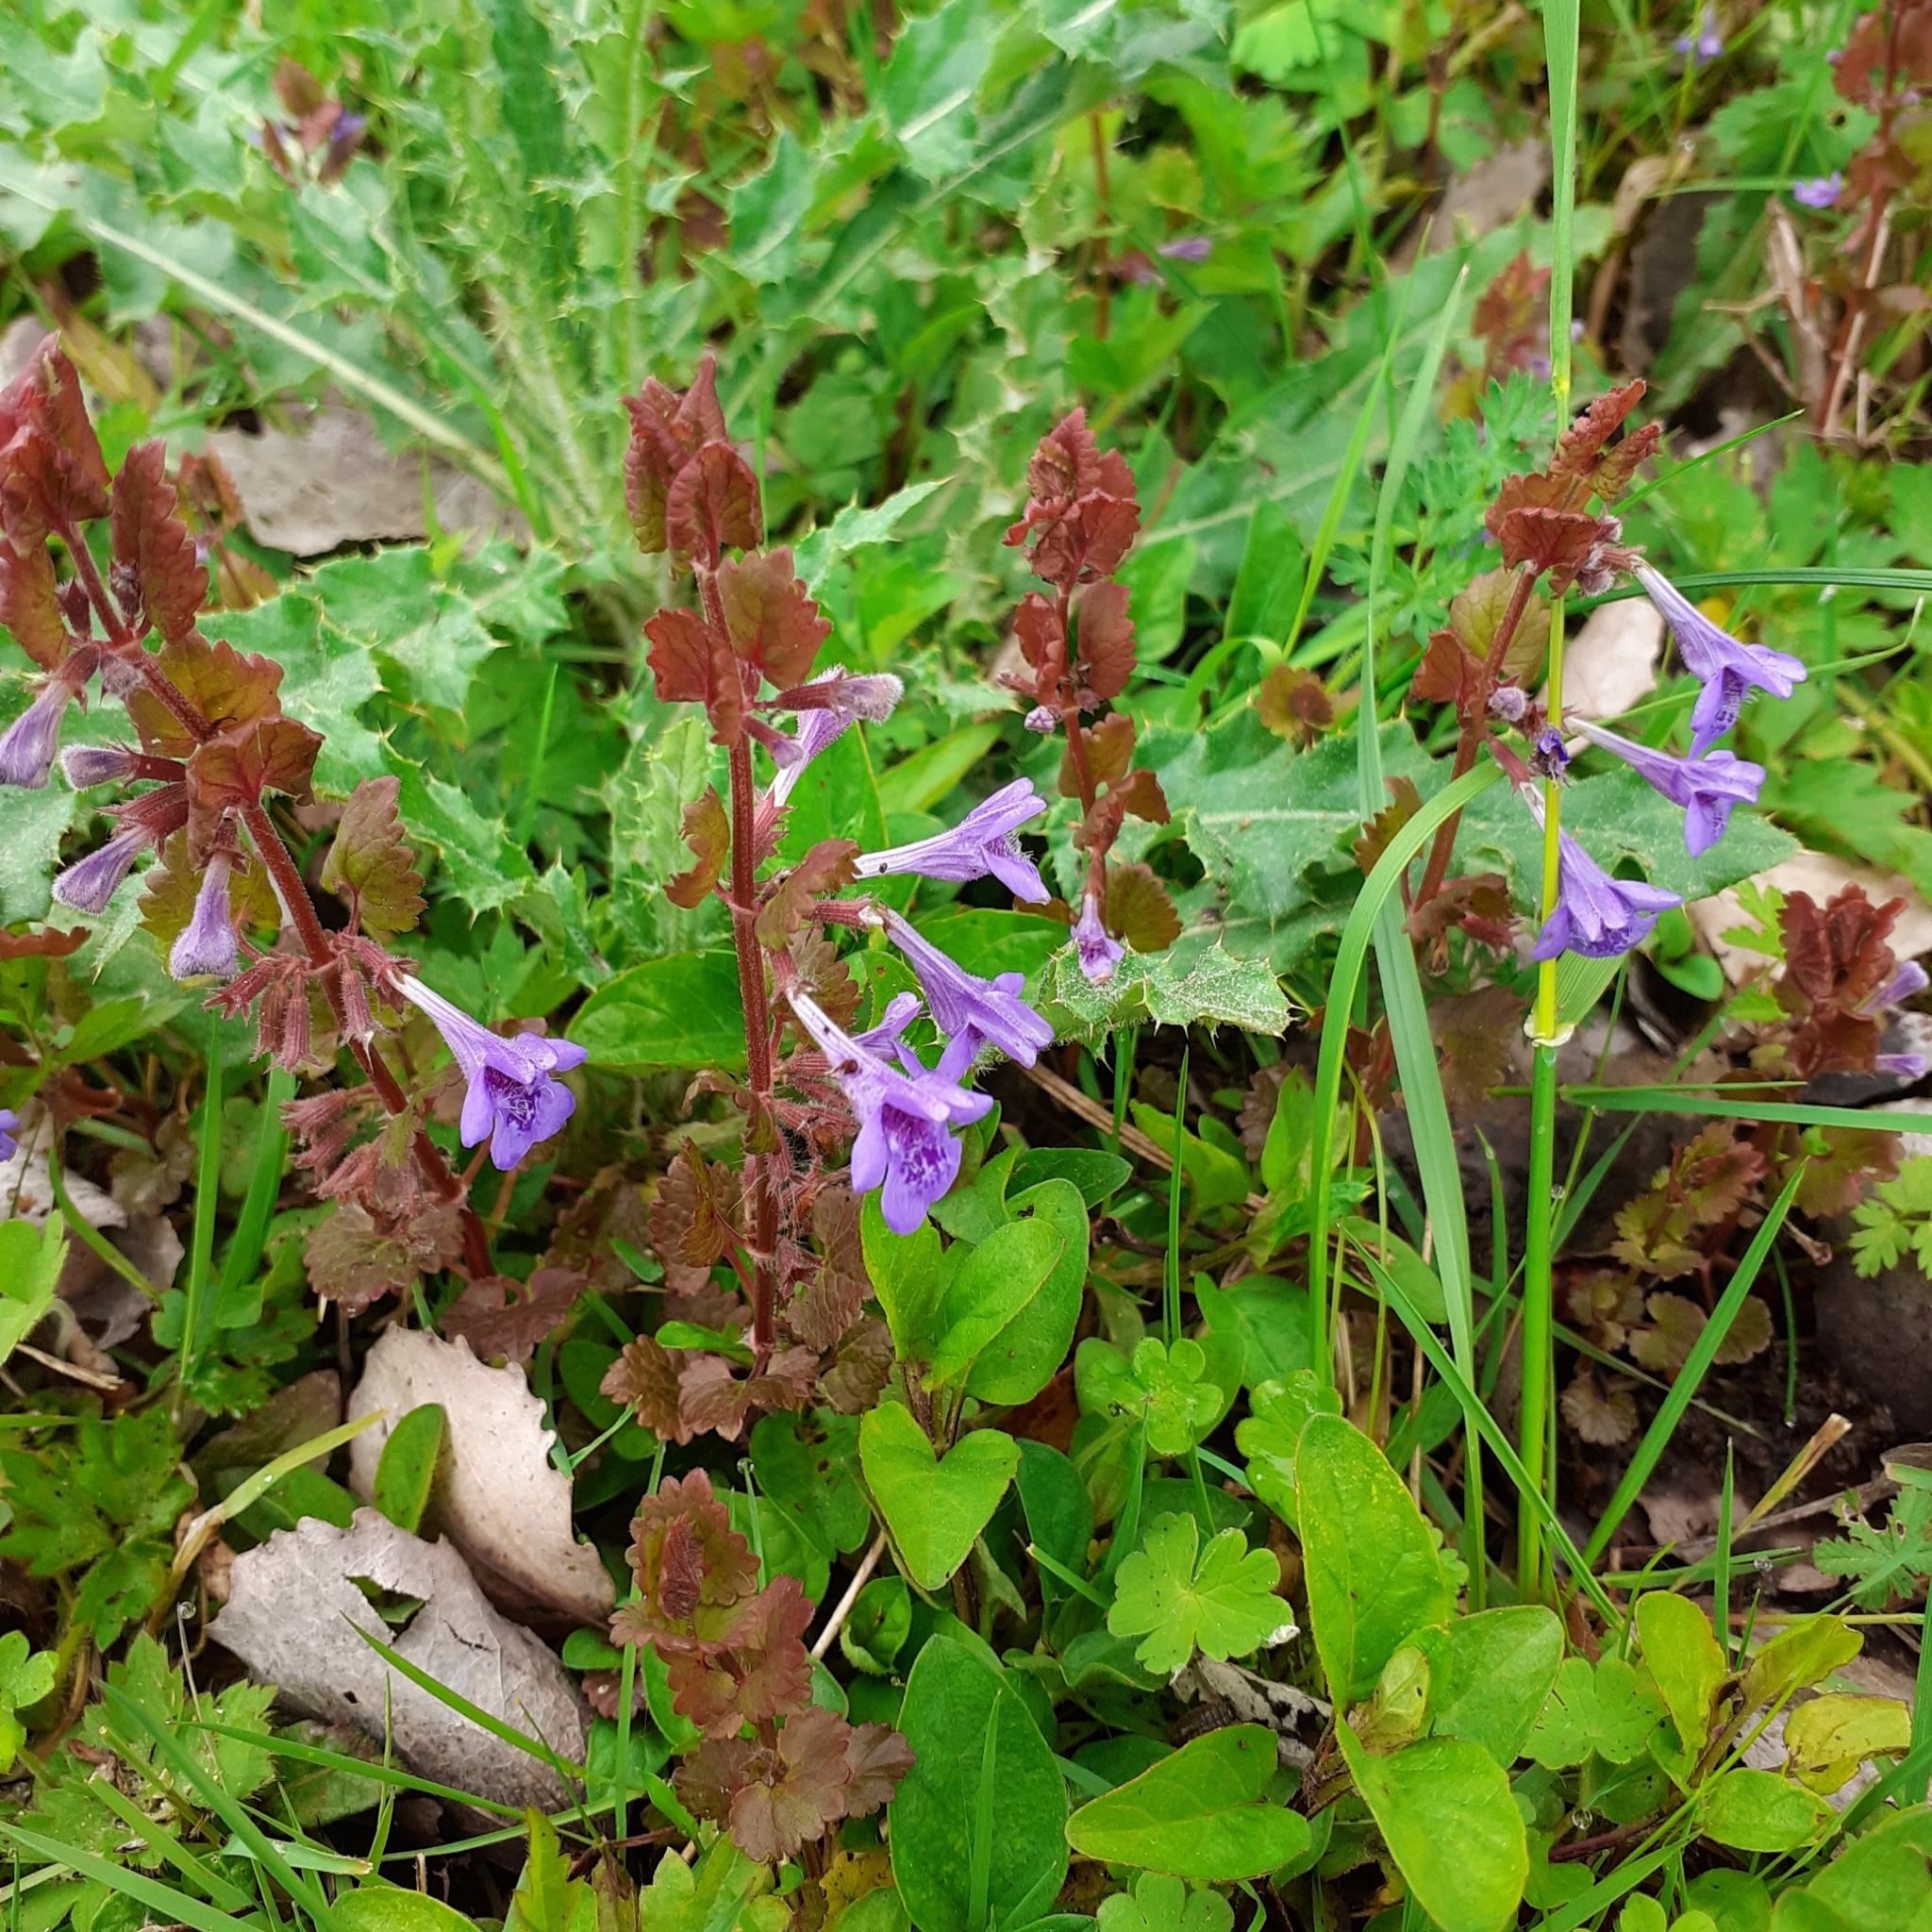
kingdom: Plantae
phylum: Tracheophyta
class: Magnoliopsida
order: Lamiales
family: Lamiaceae
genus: Glechoma
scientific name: Glechoma hederacea
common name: Ground ivy
